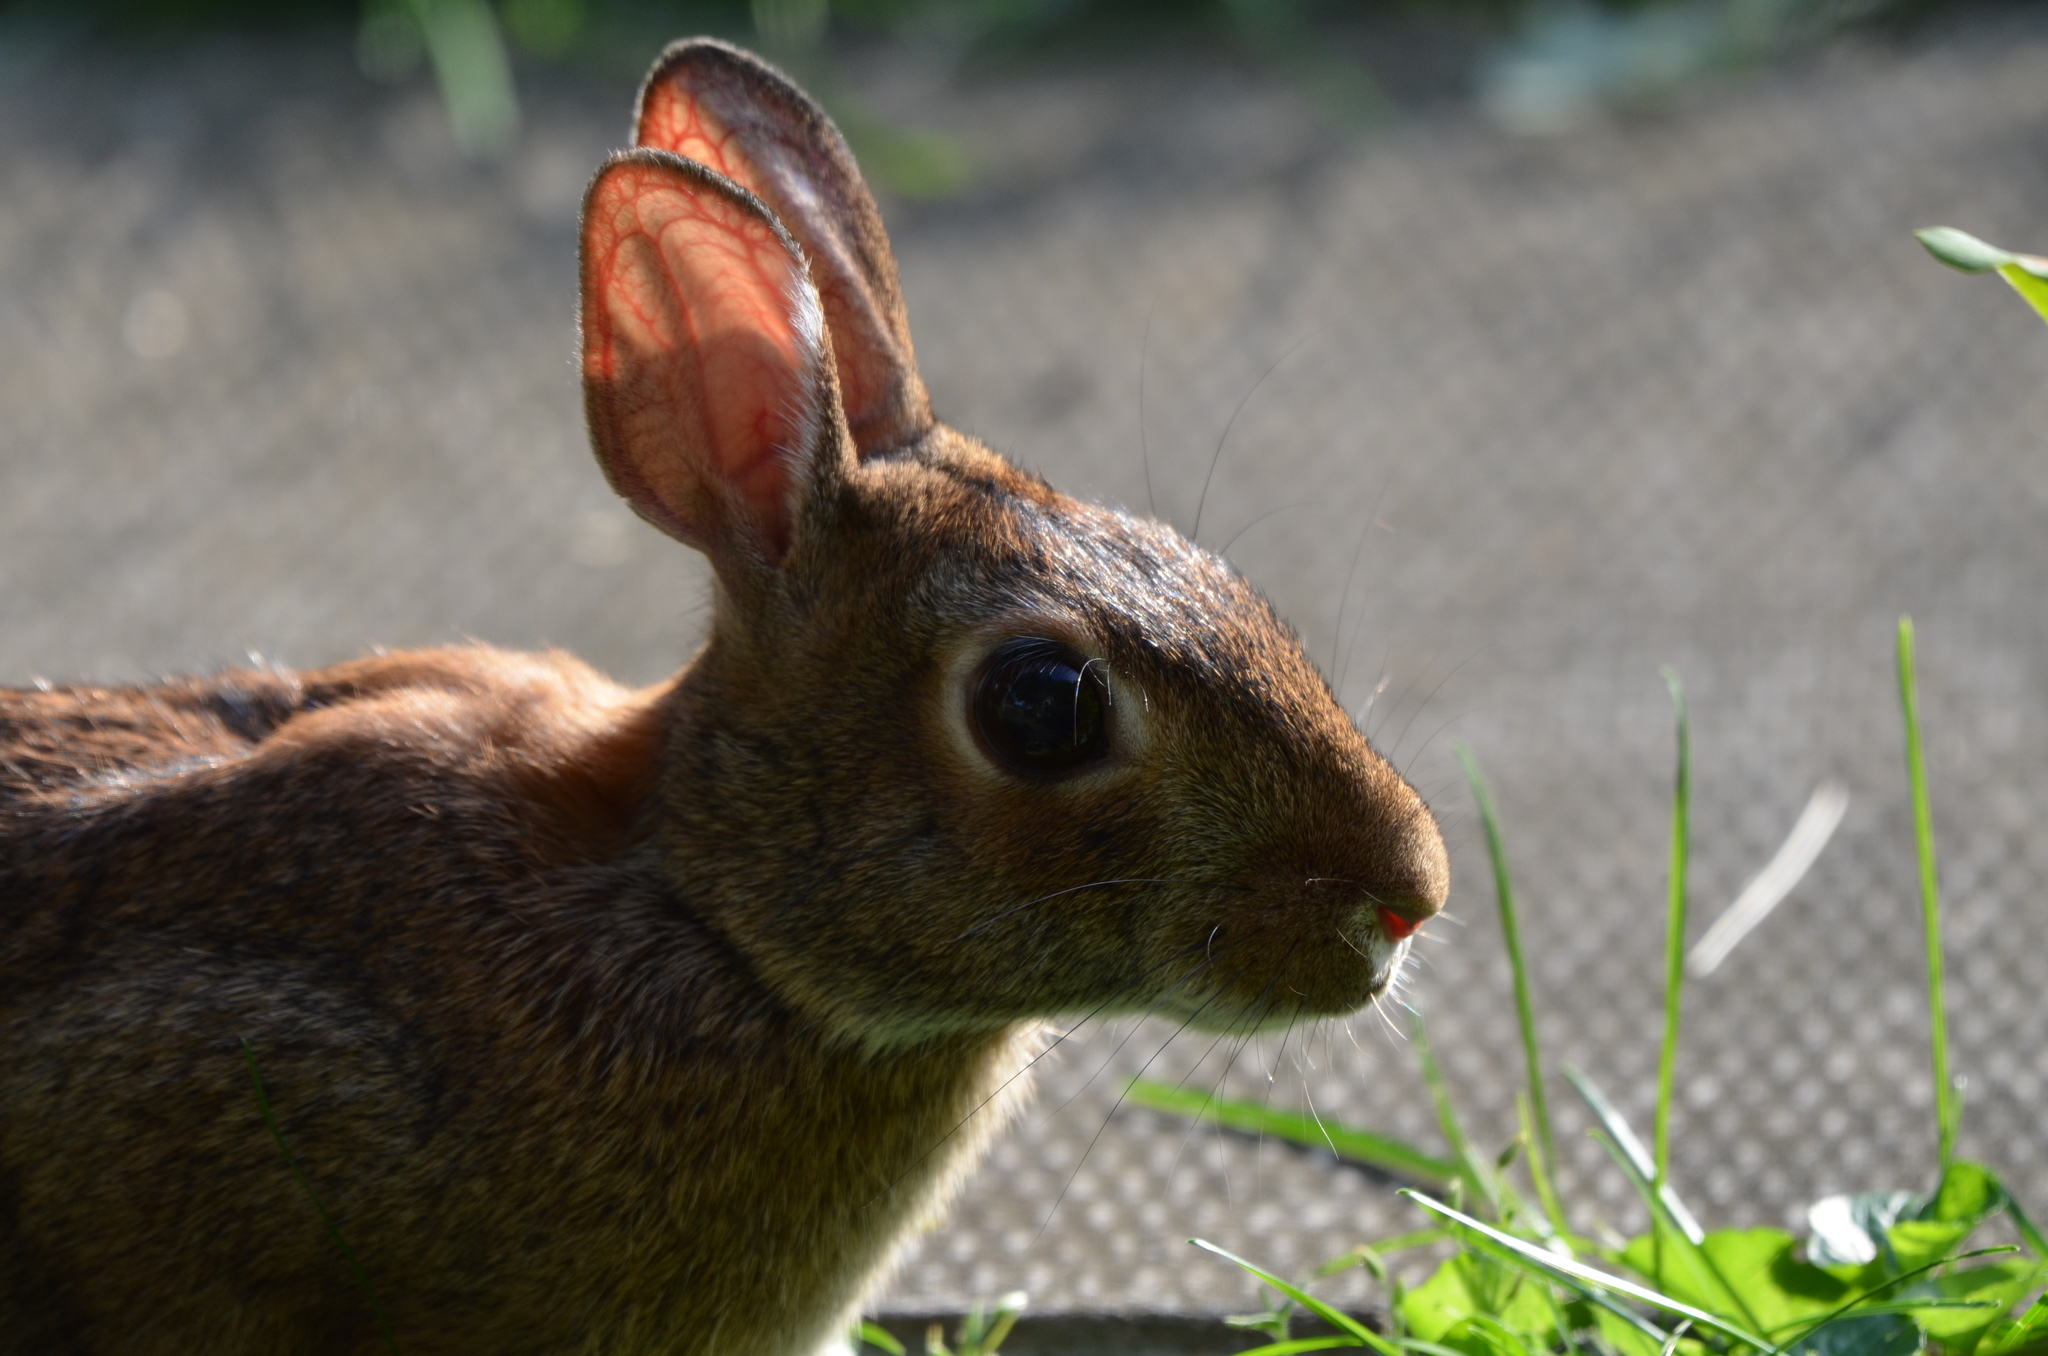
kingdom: Animalia
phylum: Chordata
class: Mammalia
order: Lagomorpha
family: Leporidae
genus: Sylvilagus
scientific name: Sylvilagus floridanus
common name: Eastern cottontail
